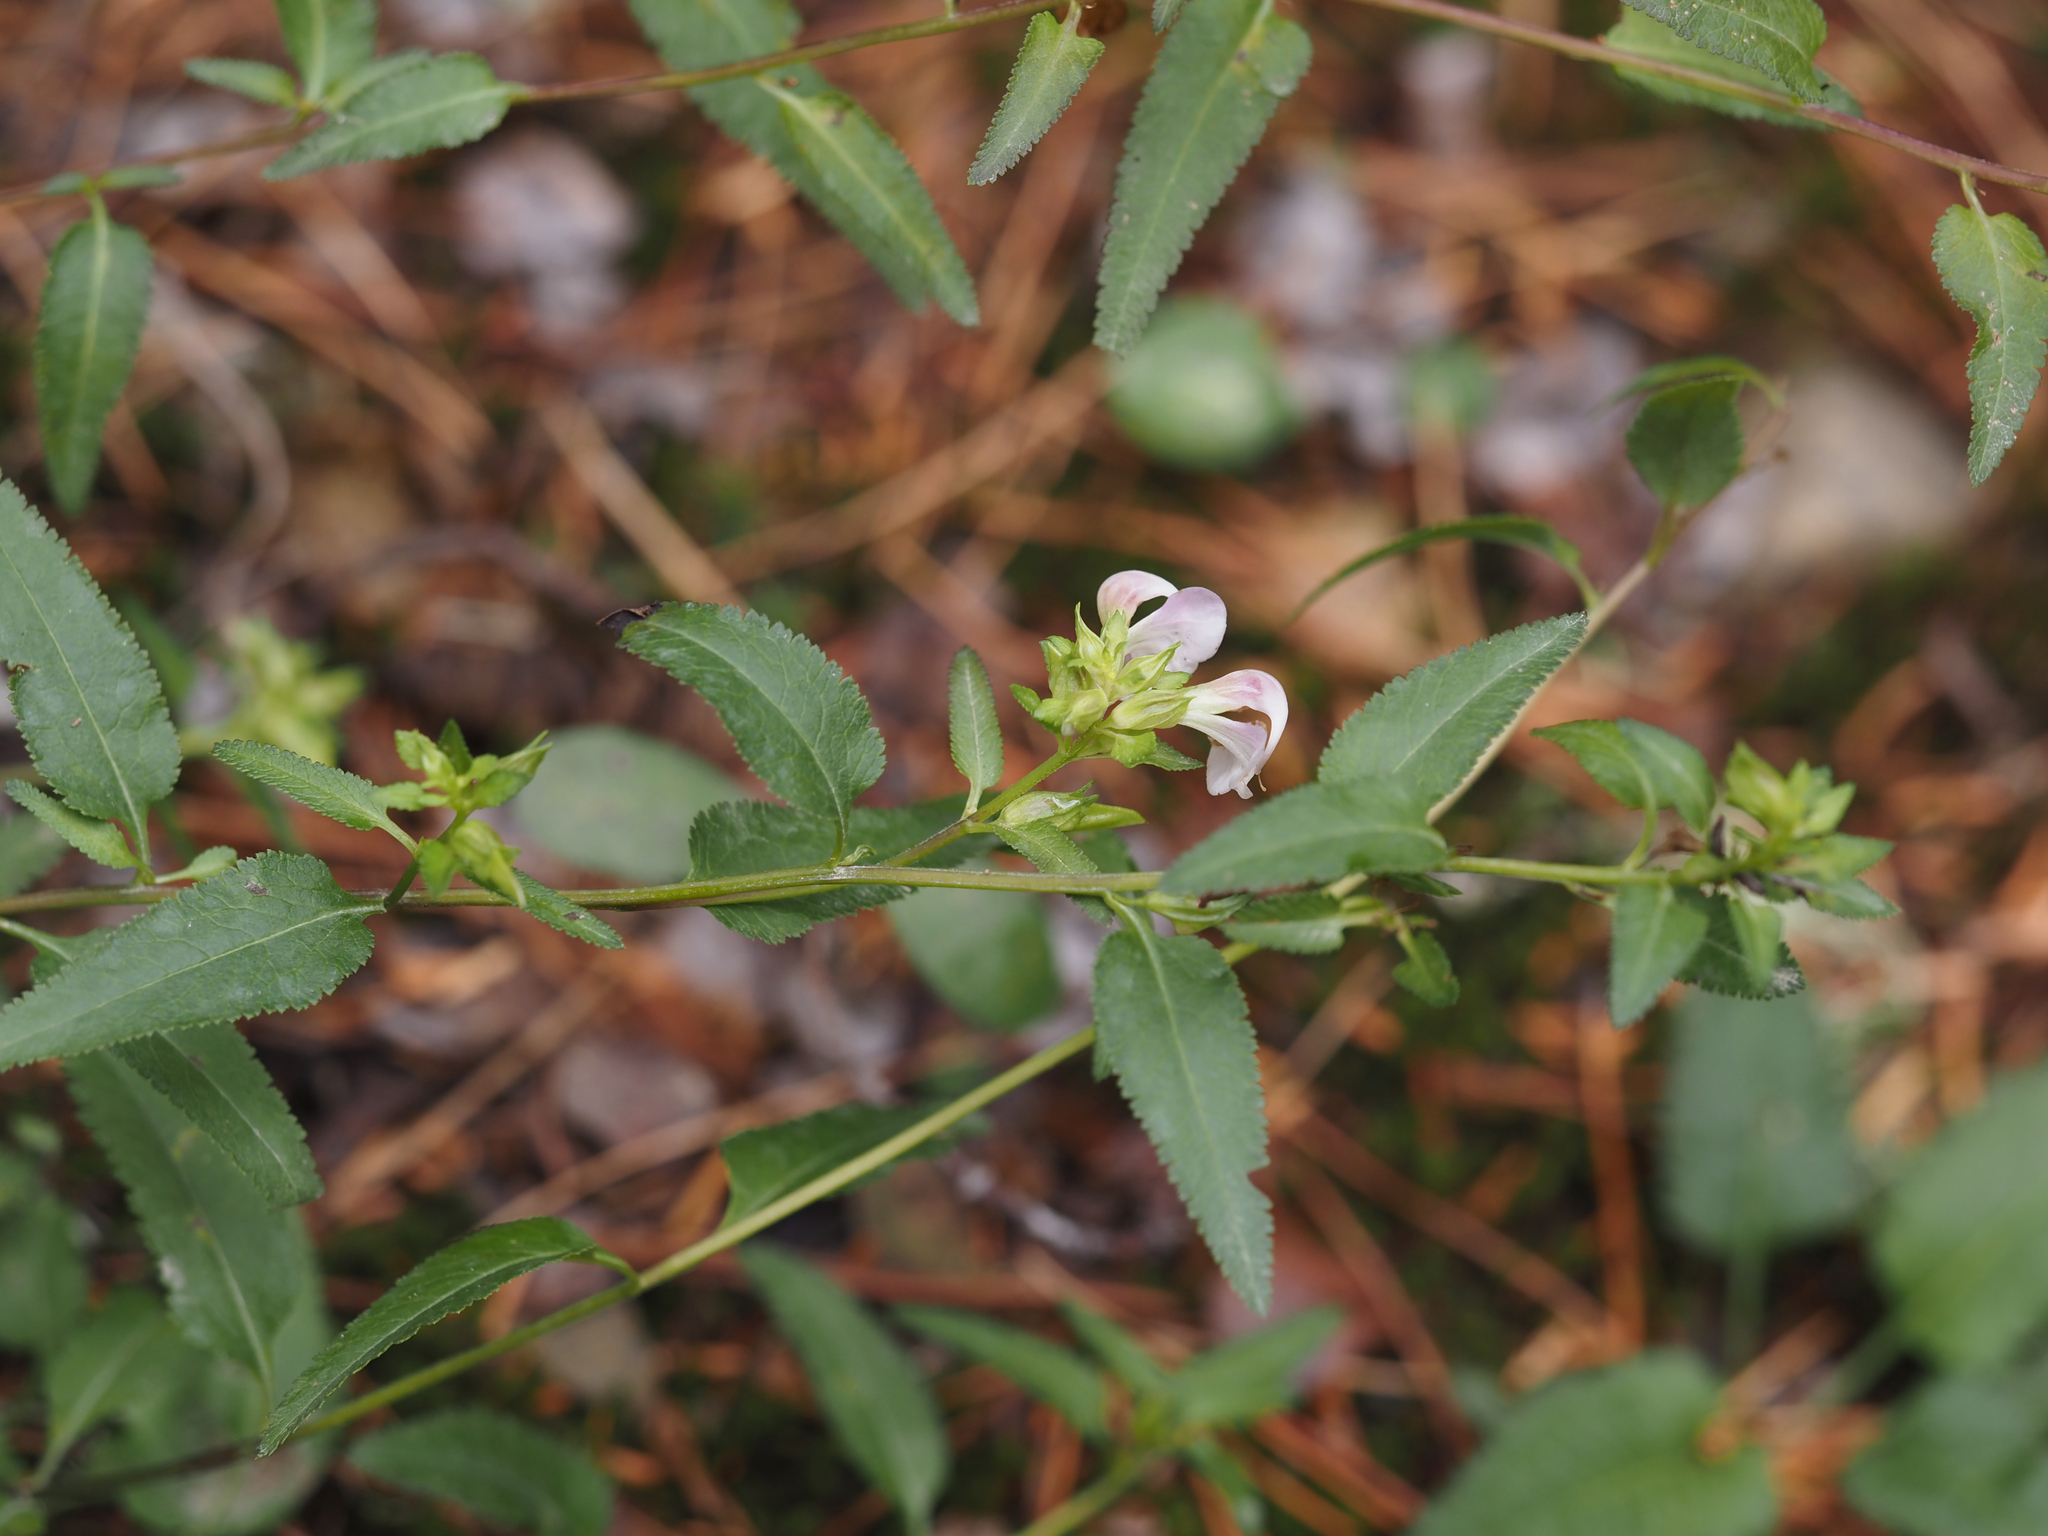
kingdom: Plantae
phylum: Tracheophyta
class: Magnoliopsida
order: Lamiales
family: Orobanchaceae
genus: Pedicularis
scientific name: Pedicularis racemosa
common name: Leafy lousewort
